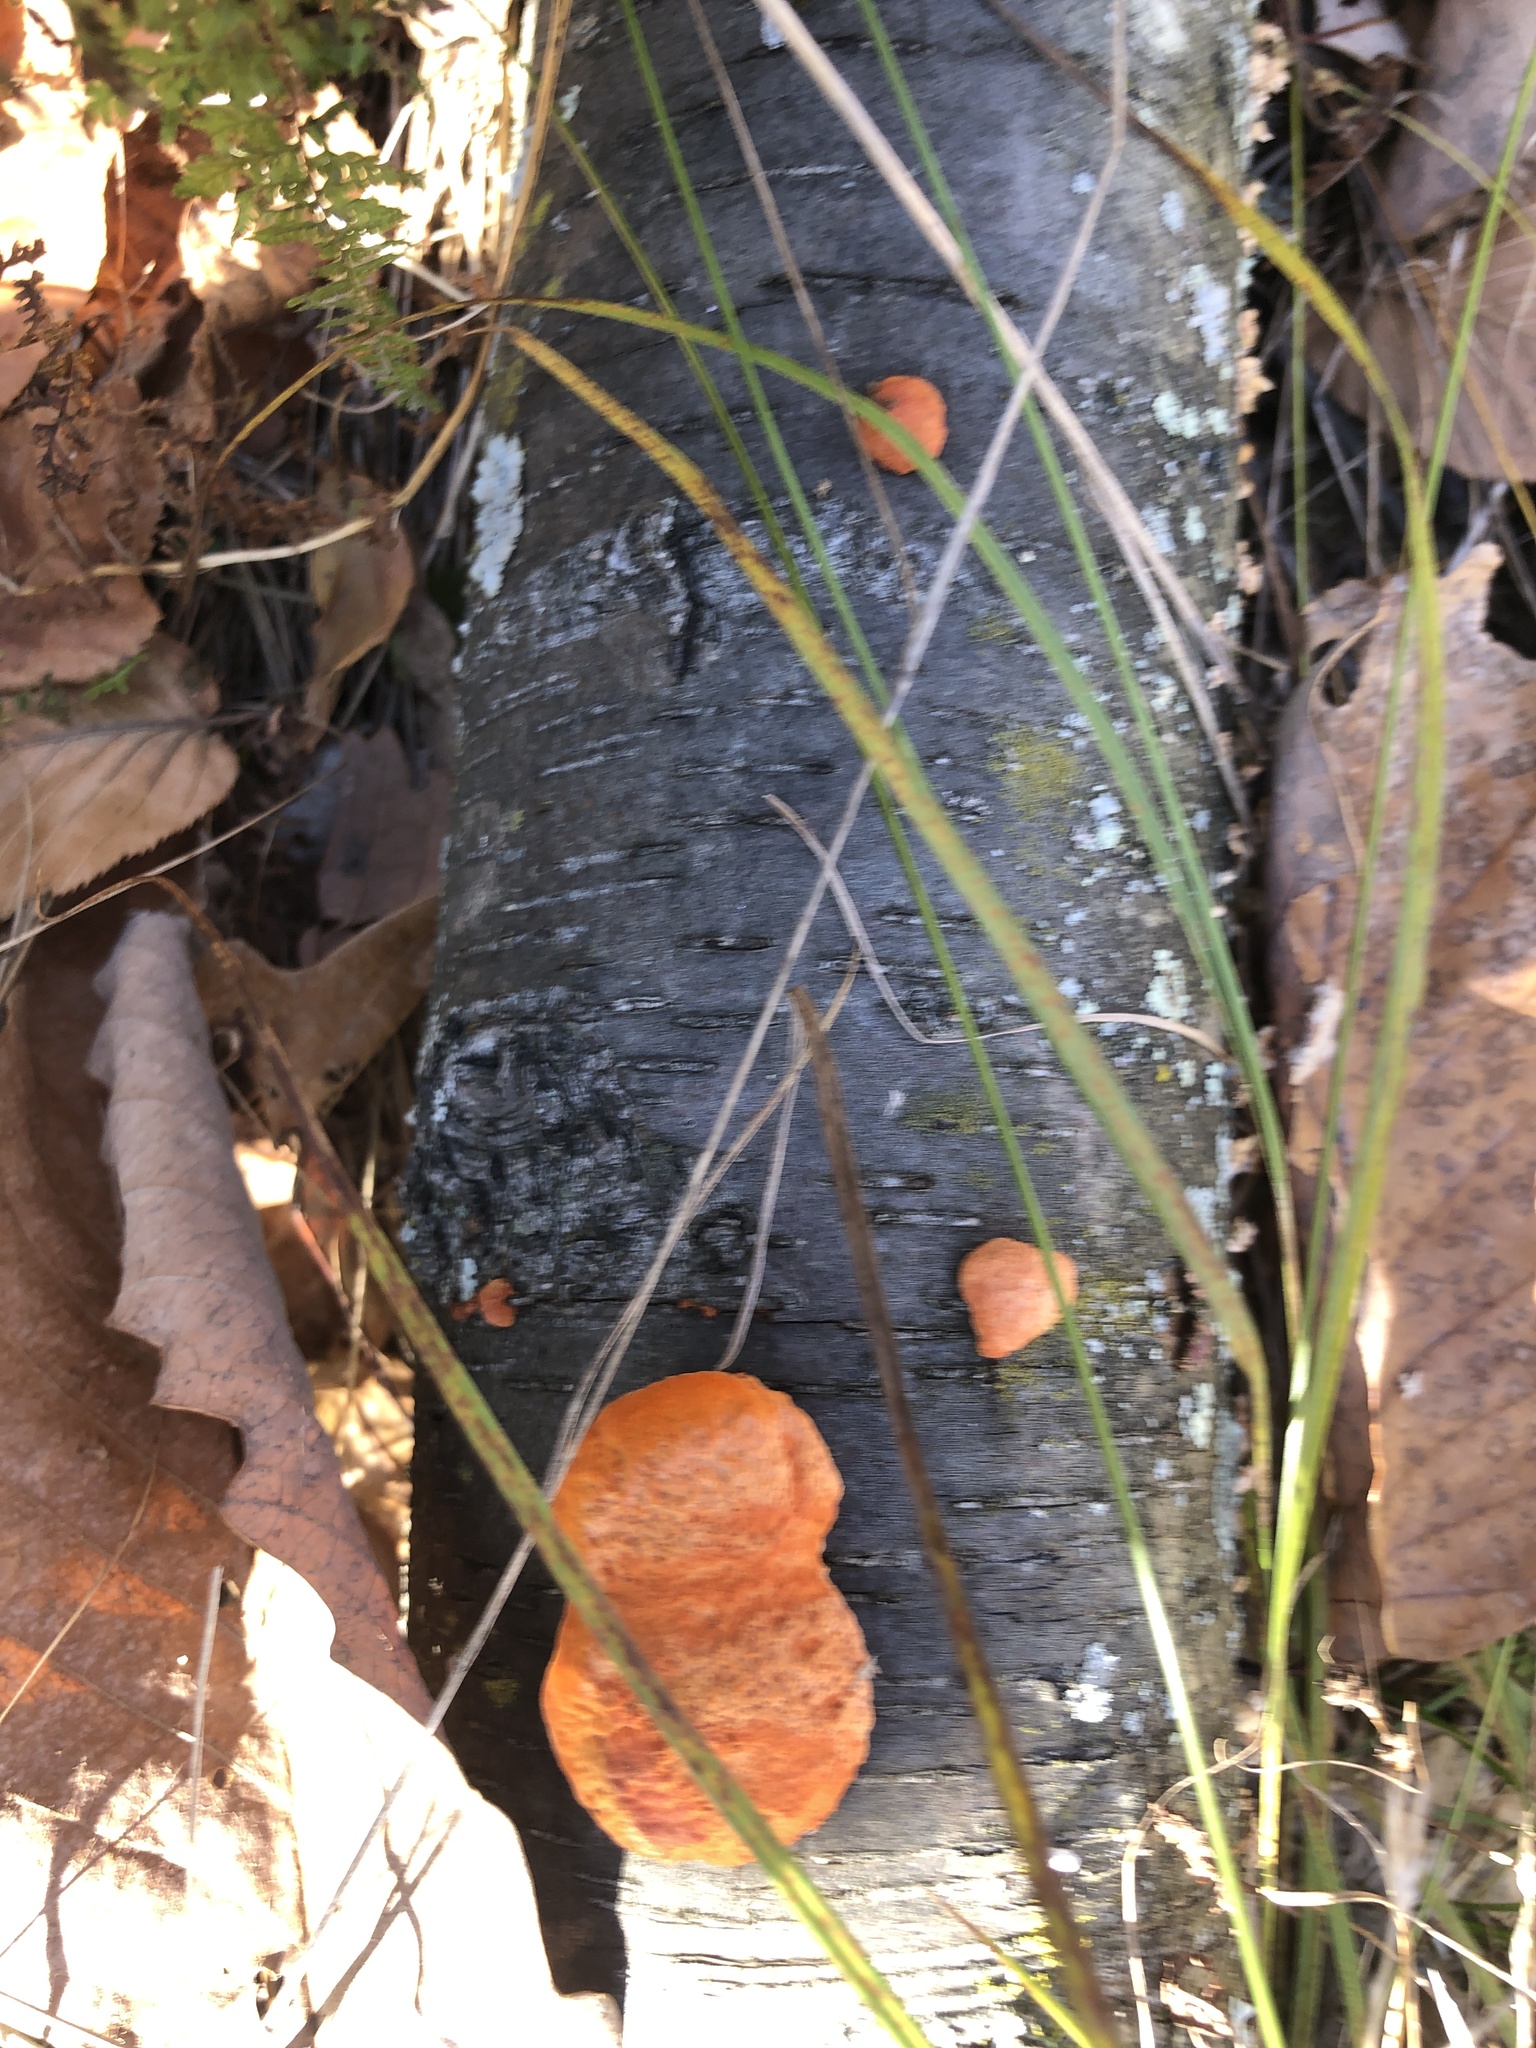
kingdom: Fungi
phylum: Basidiomycota
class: Agaricomycetes
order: Polyporales
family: Polyporaceae
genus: Trametes
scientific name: Trametes cinnabarina
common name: Northern cinnabar polypore
